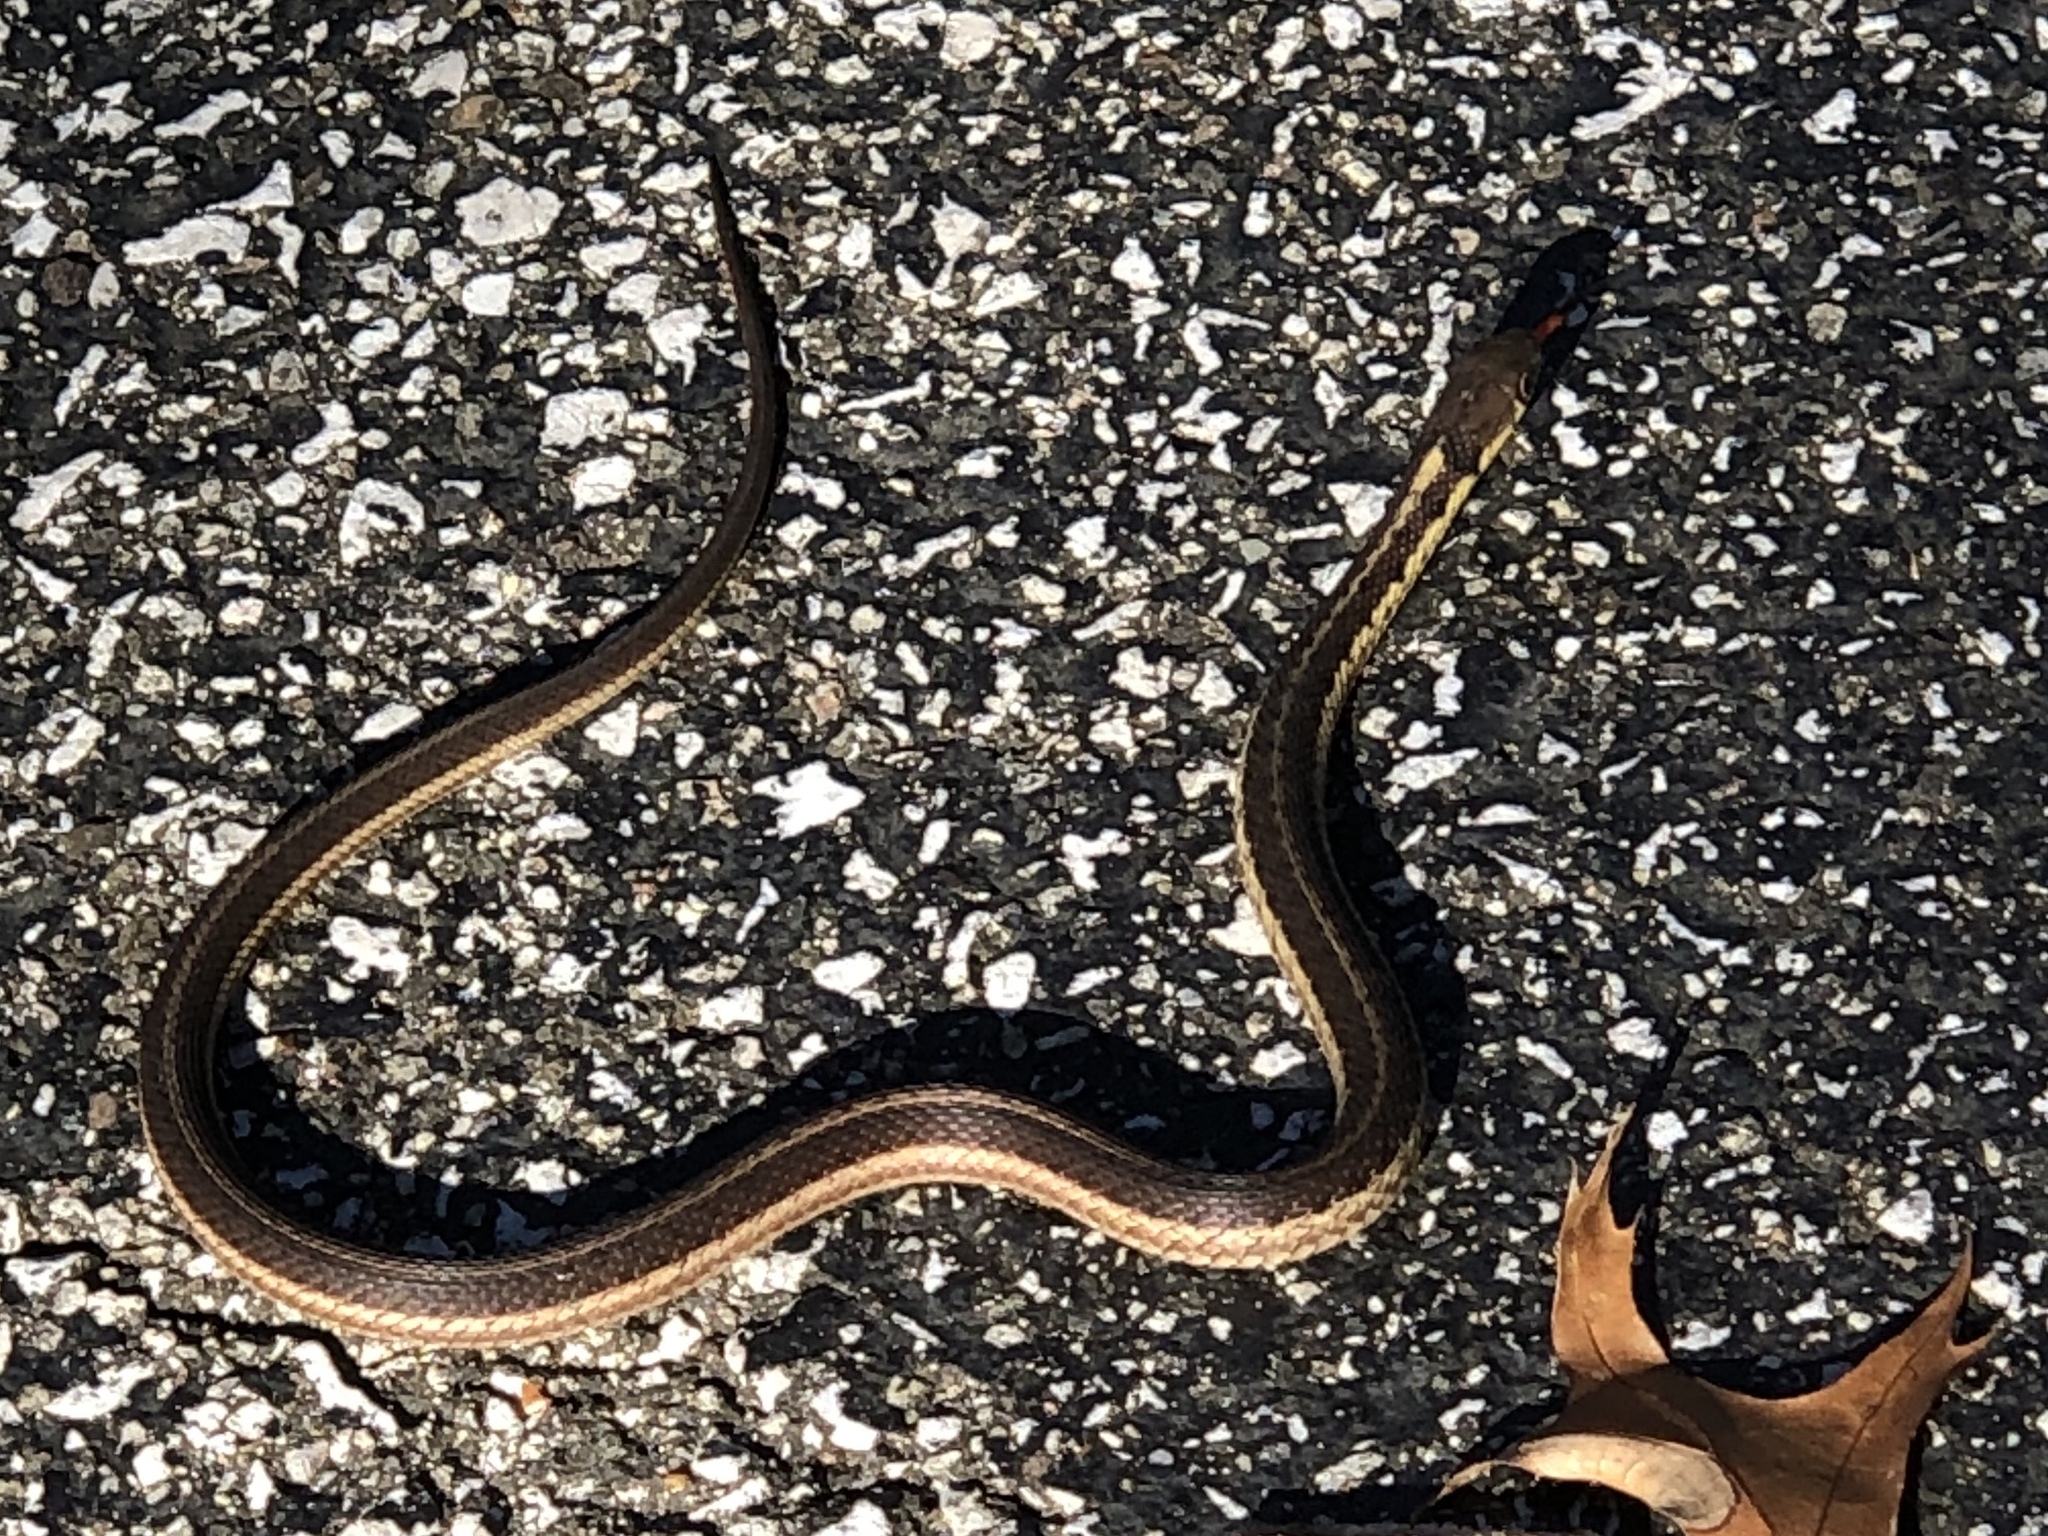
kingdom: Animalia
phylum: Chordata
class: Squamata
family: Colubridae
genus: Thamnophis
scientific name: Thamnophis sirtalis
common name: Common garter snake
